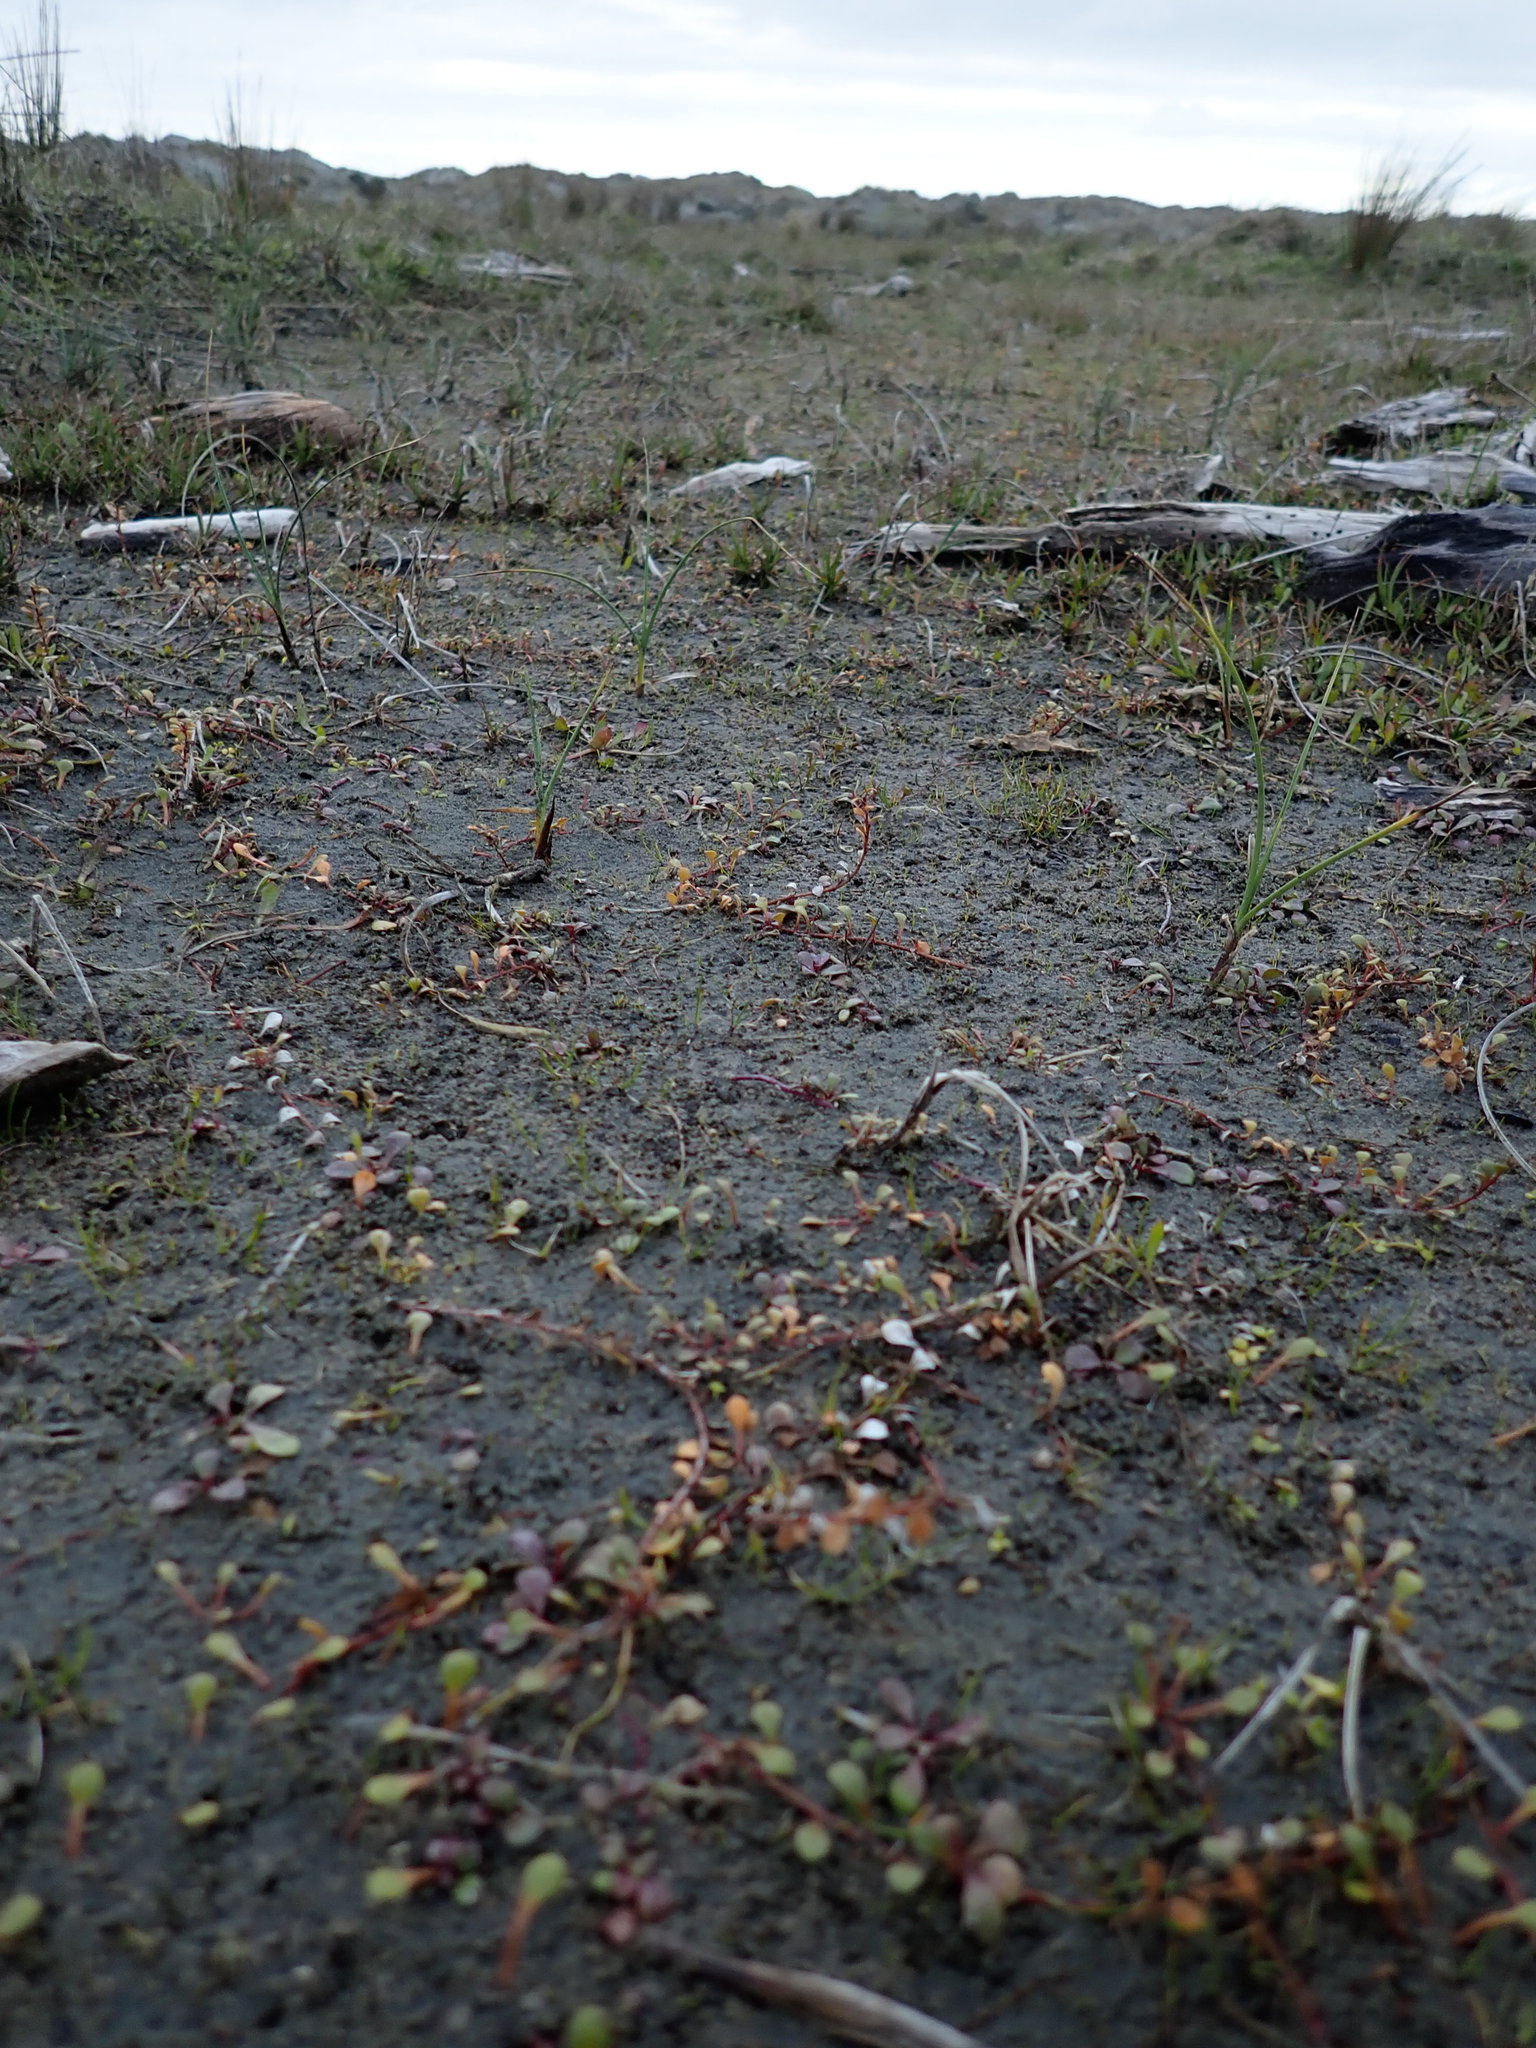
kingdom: Plantae
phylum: Tracheophyta
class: Magnoliopsida
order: Ericales
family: Primulaceae
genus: Samolus
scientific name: Samolus repens
